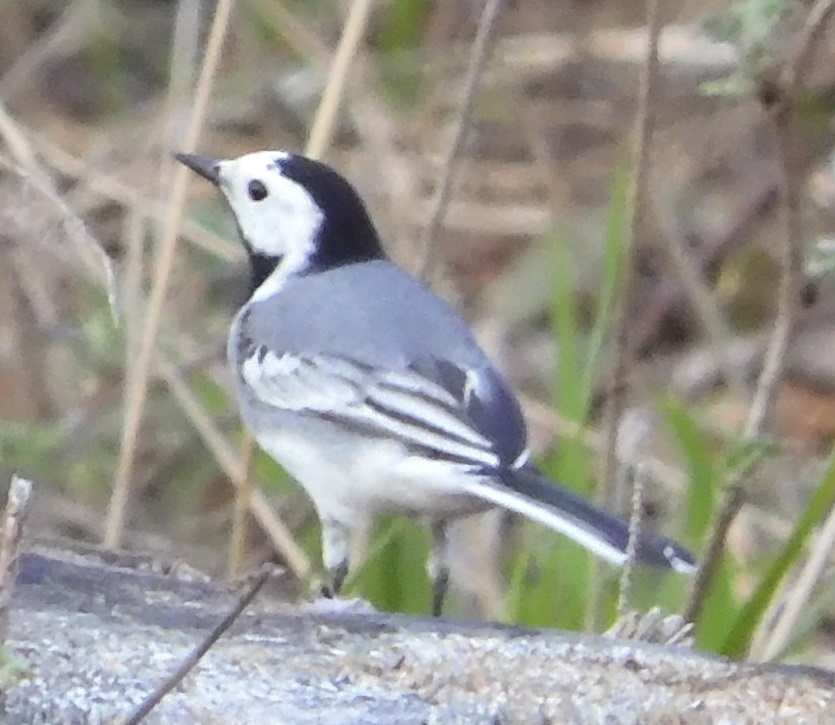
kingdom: Animalia
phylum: Chordata
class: Aves
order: Passeriformes
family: Motacillidae
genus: Motacilla
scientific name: Motacilla alba
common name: White wagtail
